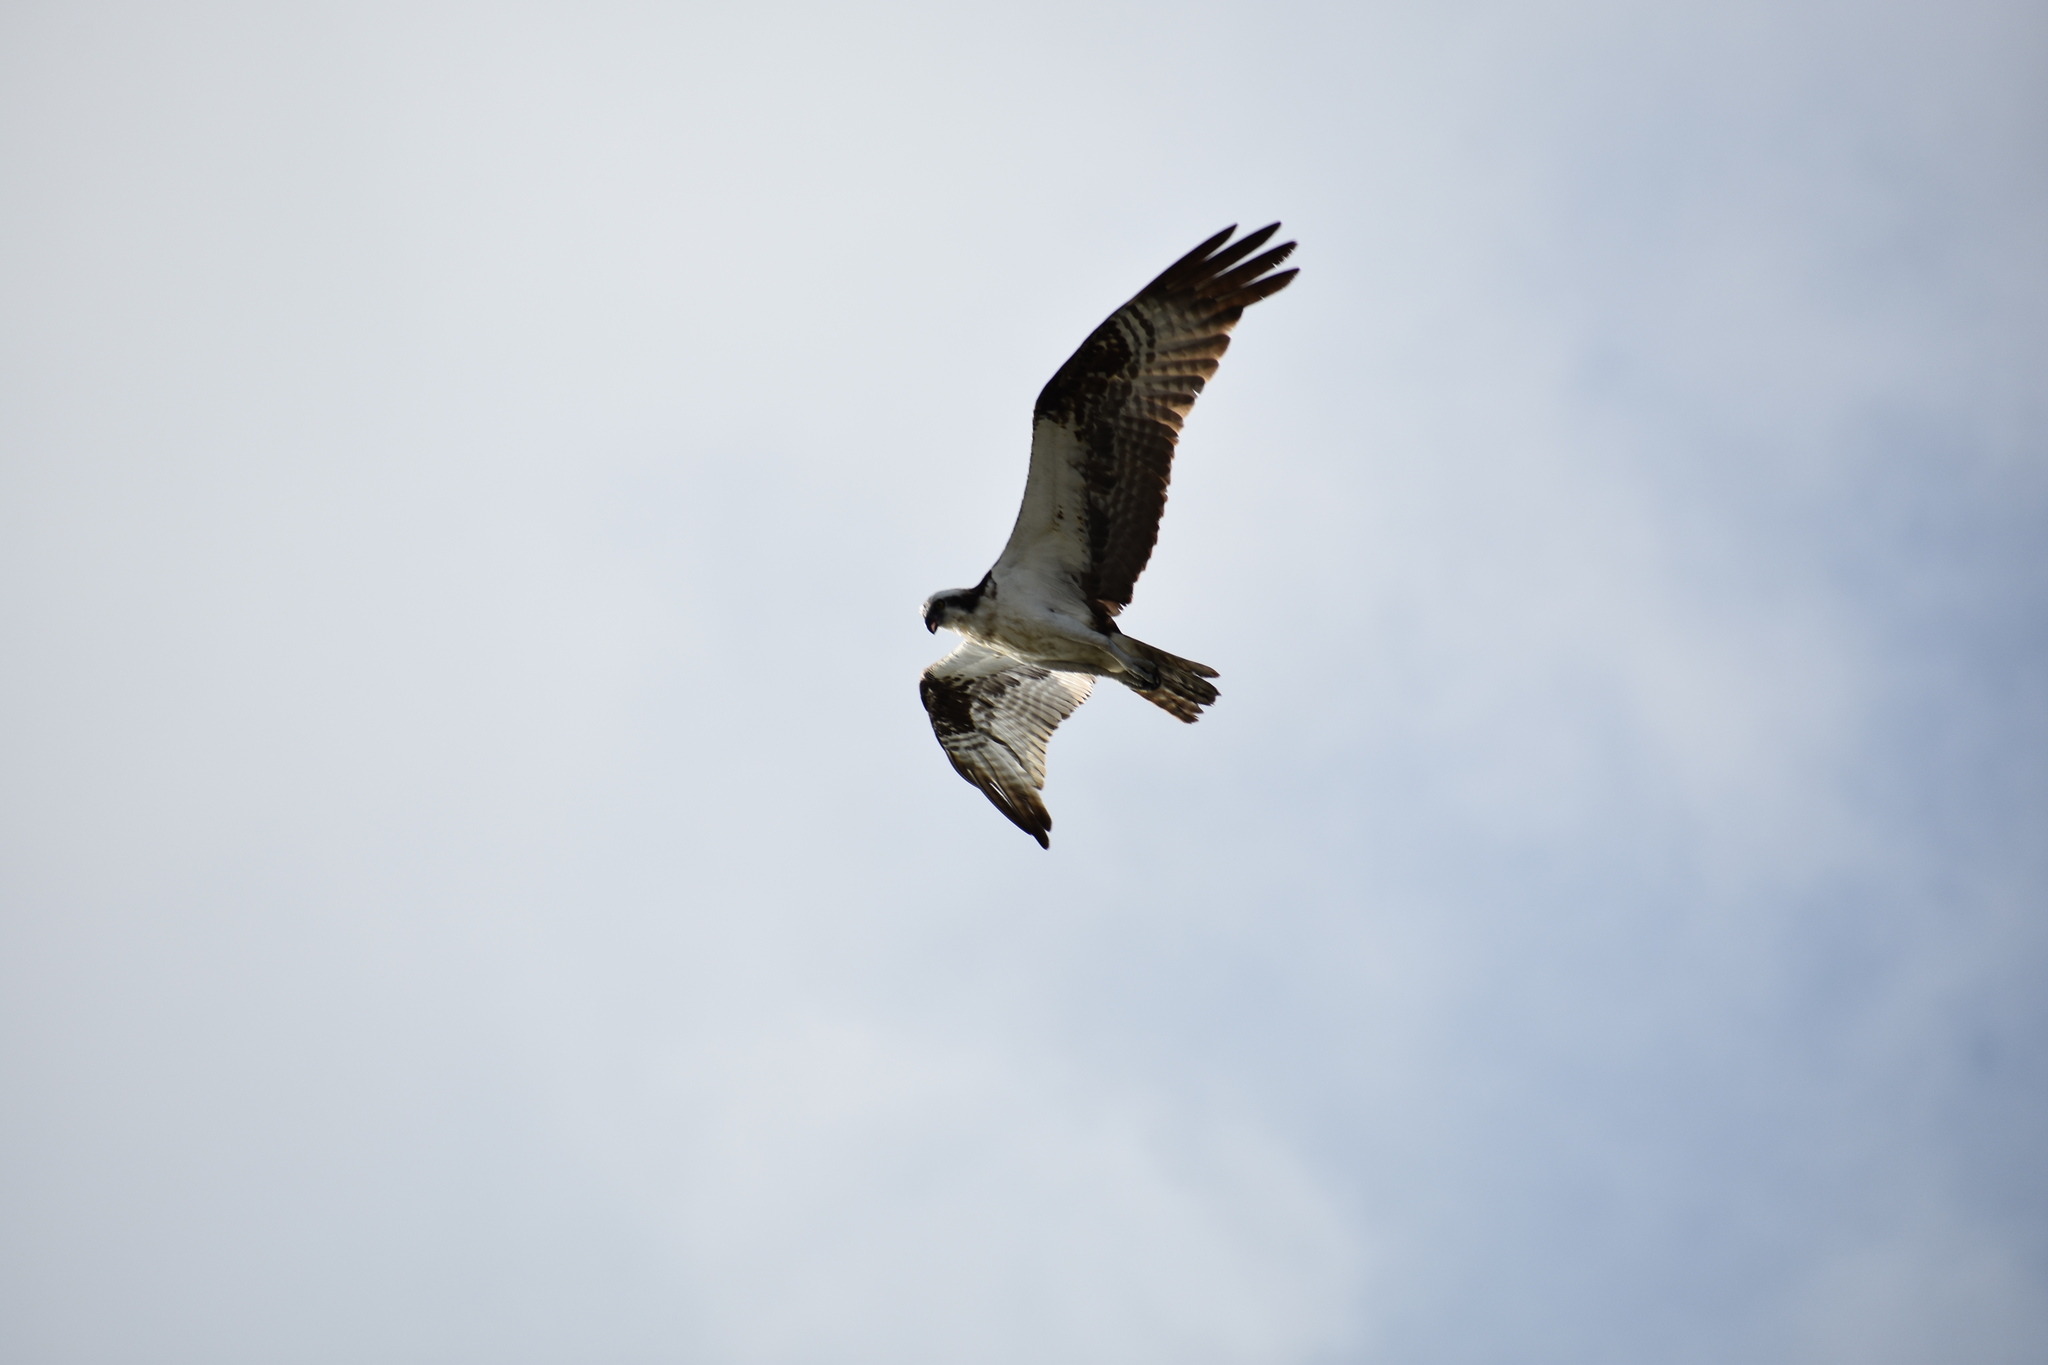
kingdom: Animalia
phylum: Chordata
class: Aves
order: Accipitriformes
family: Pandionidae
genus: Pandion
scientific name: Pandion haliaetus
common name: Osprey
